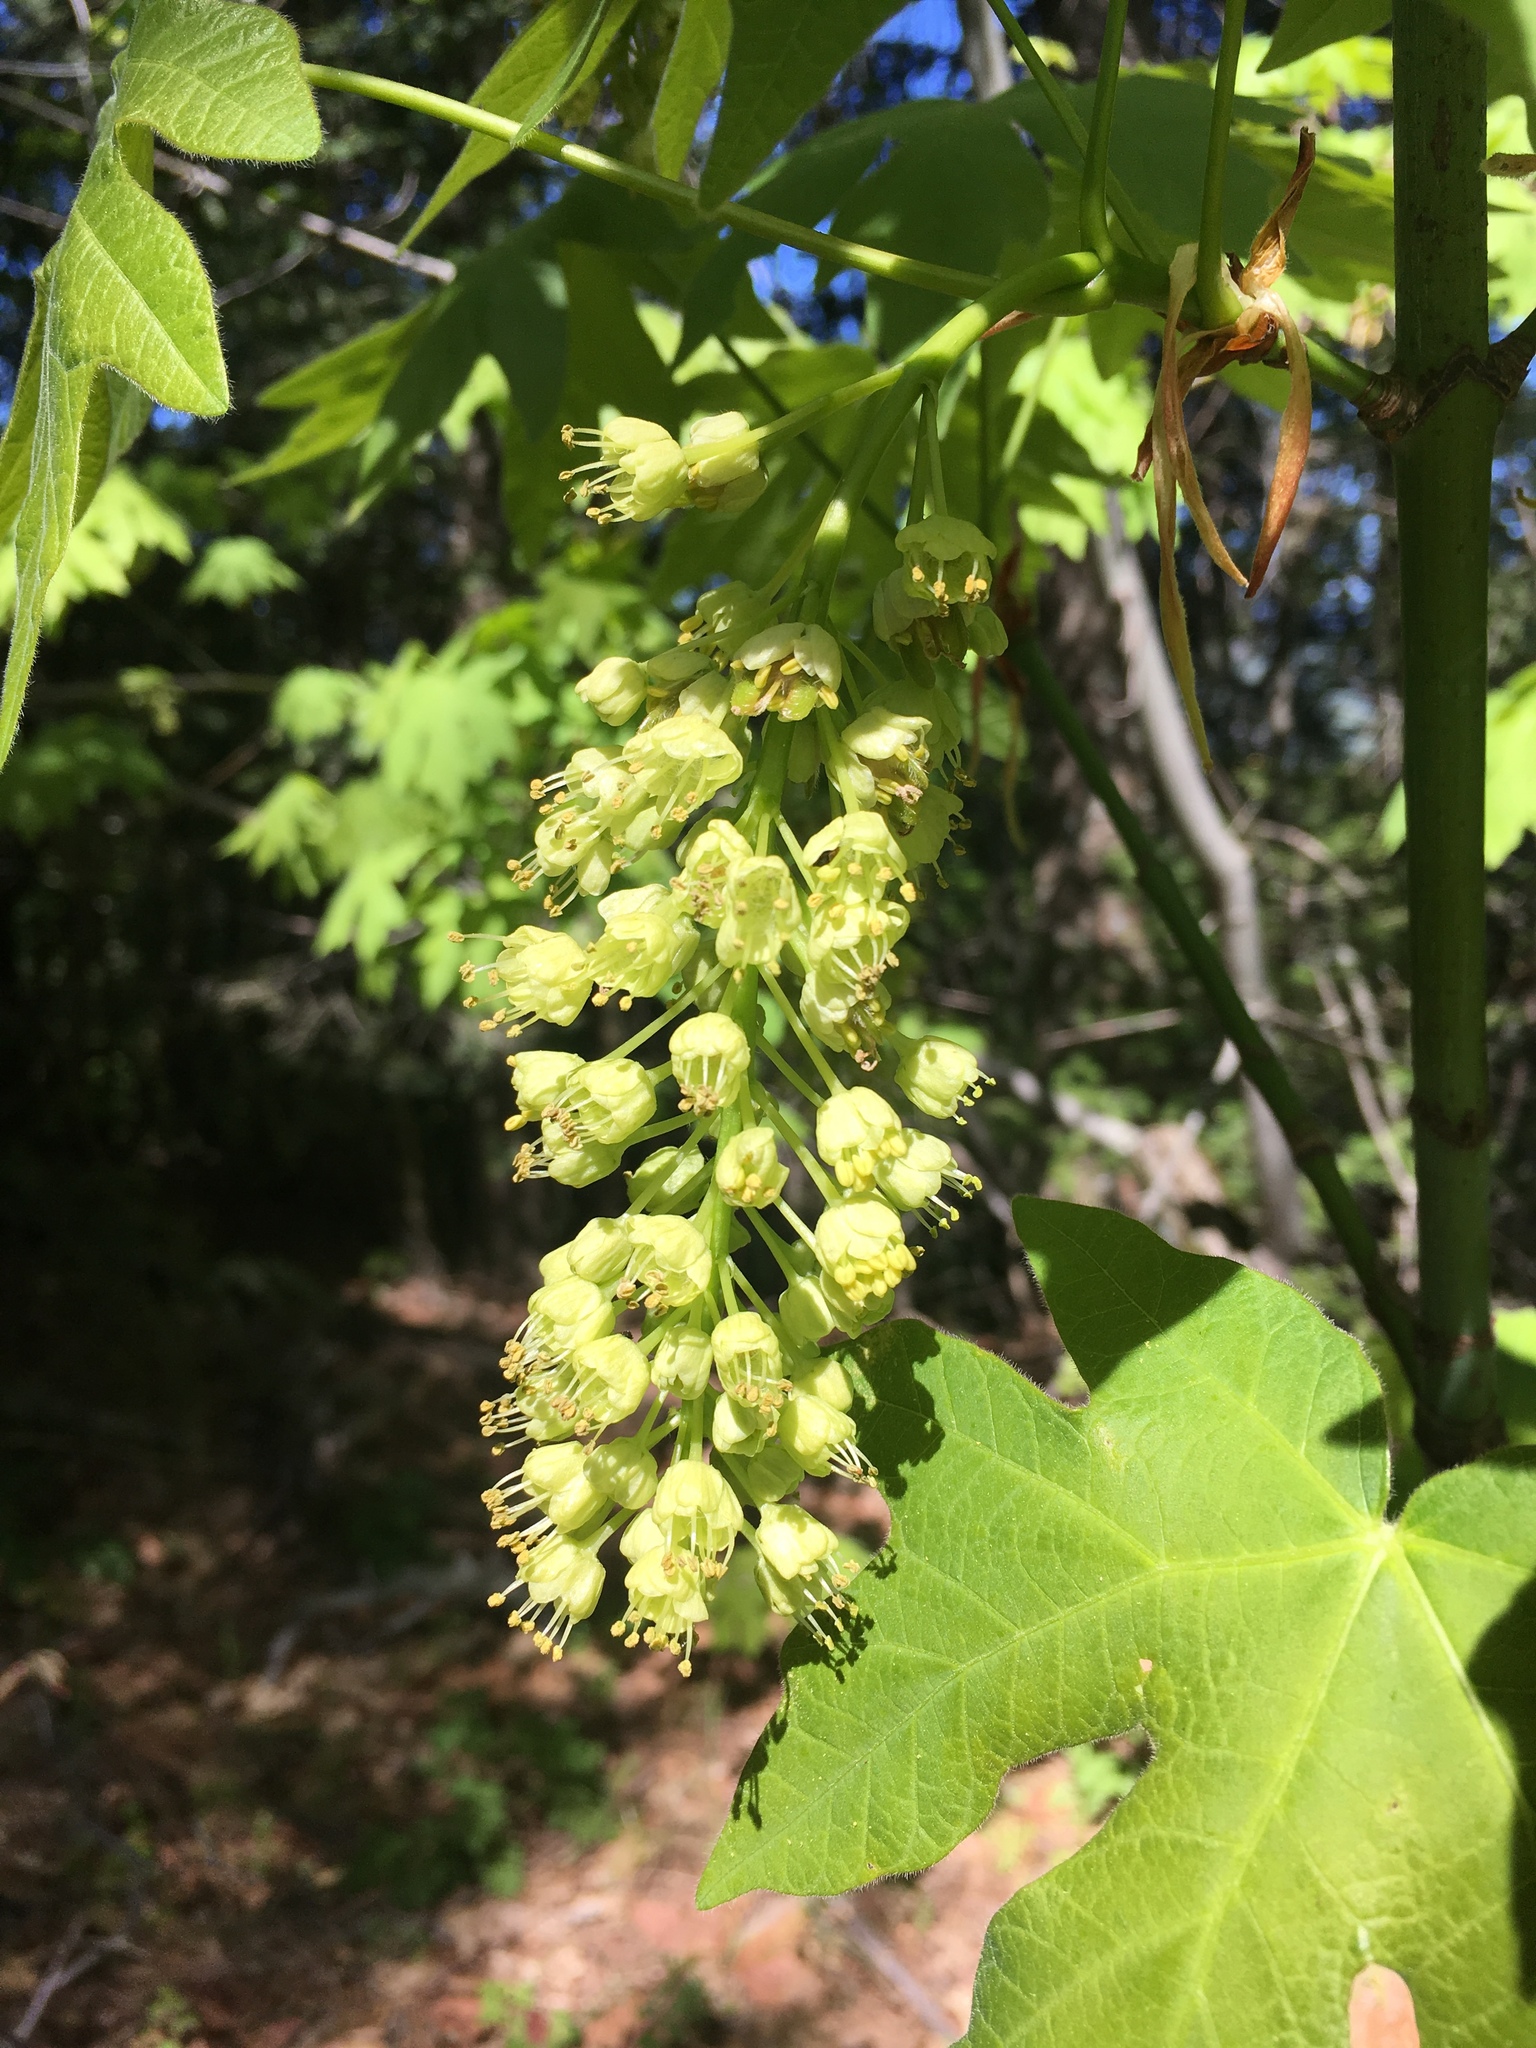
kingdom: Plantae
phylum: Tracheophyta
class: Magnoliopsida
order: Sapindales
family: Sapindaceae
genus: Acer
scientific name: Acer macrophyllum
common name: Oregon maple
